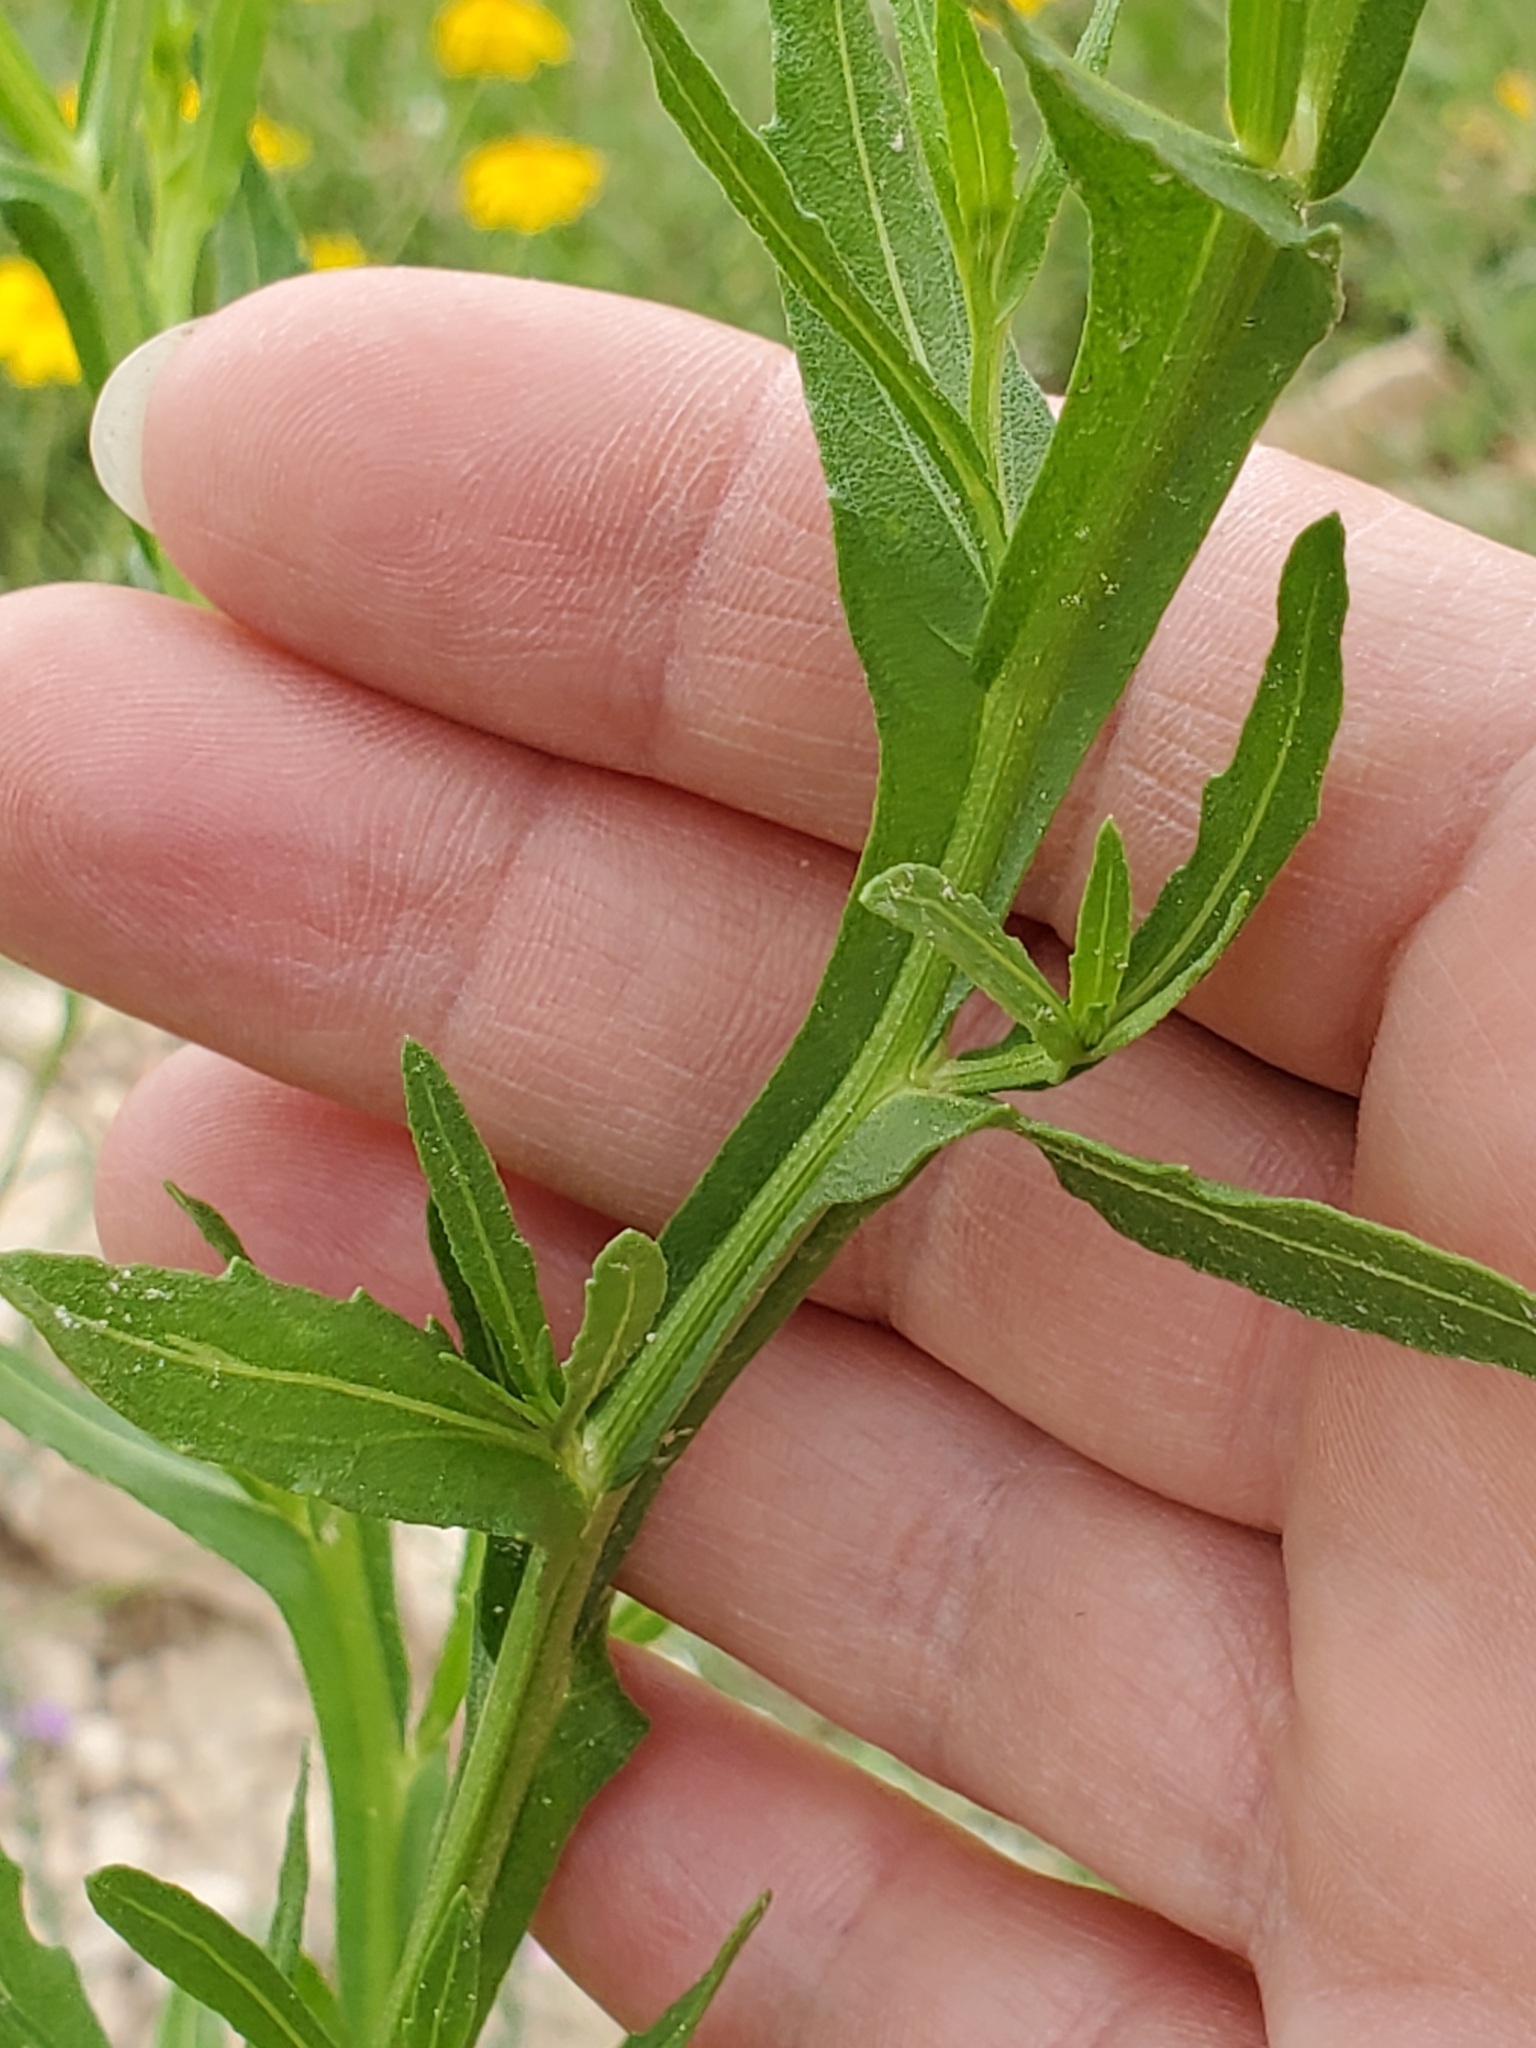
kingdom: Plantae
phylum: Tracheophyta
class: Magnoliopsida
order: Asterales
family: Asteraceae
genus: Helenium
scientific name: Helenium microcephalum
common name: Smallhead sneezeweed
